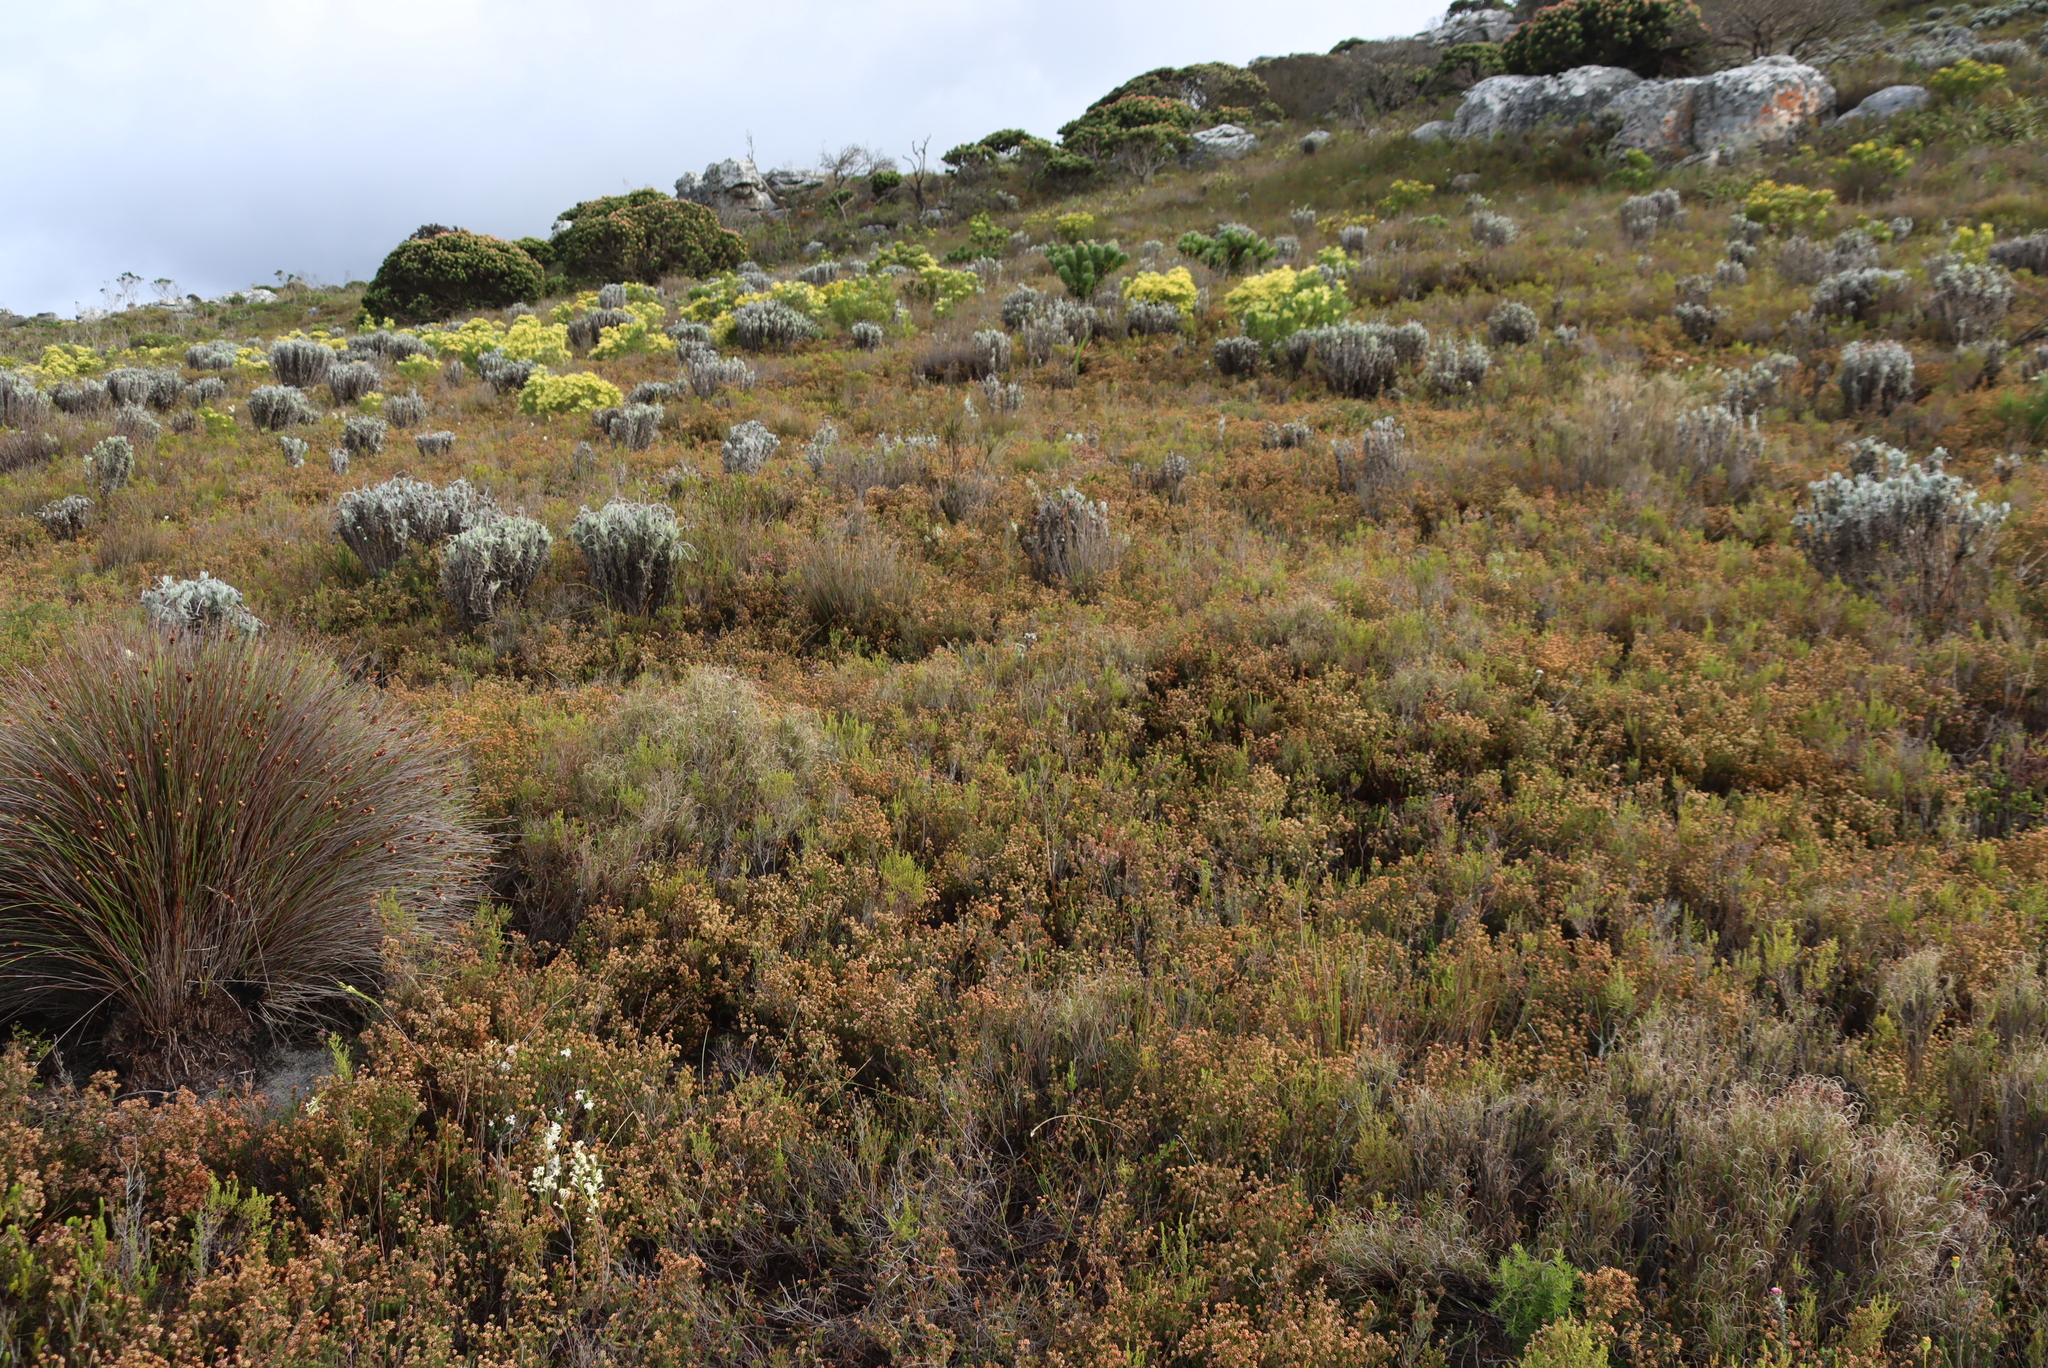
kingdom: Plantae
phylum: Tracheophyta
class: Magnoliopsida
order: Asterales
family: Asteraceae
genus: Syncarpha
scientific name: Syncarpha vestita
